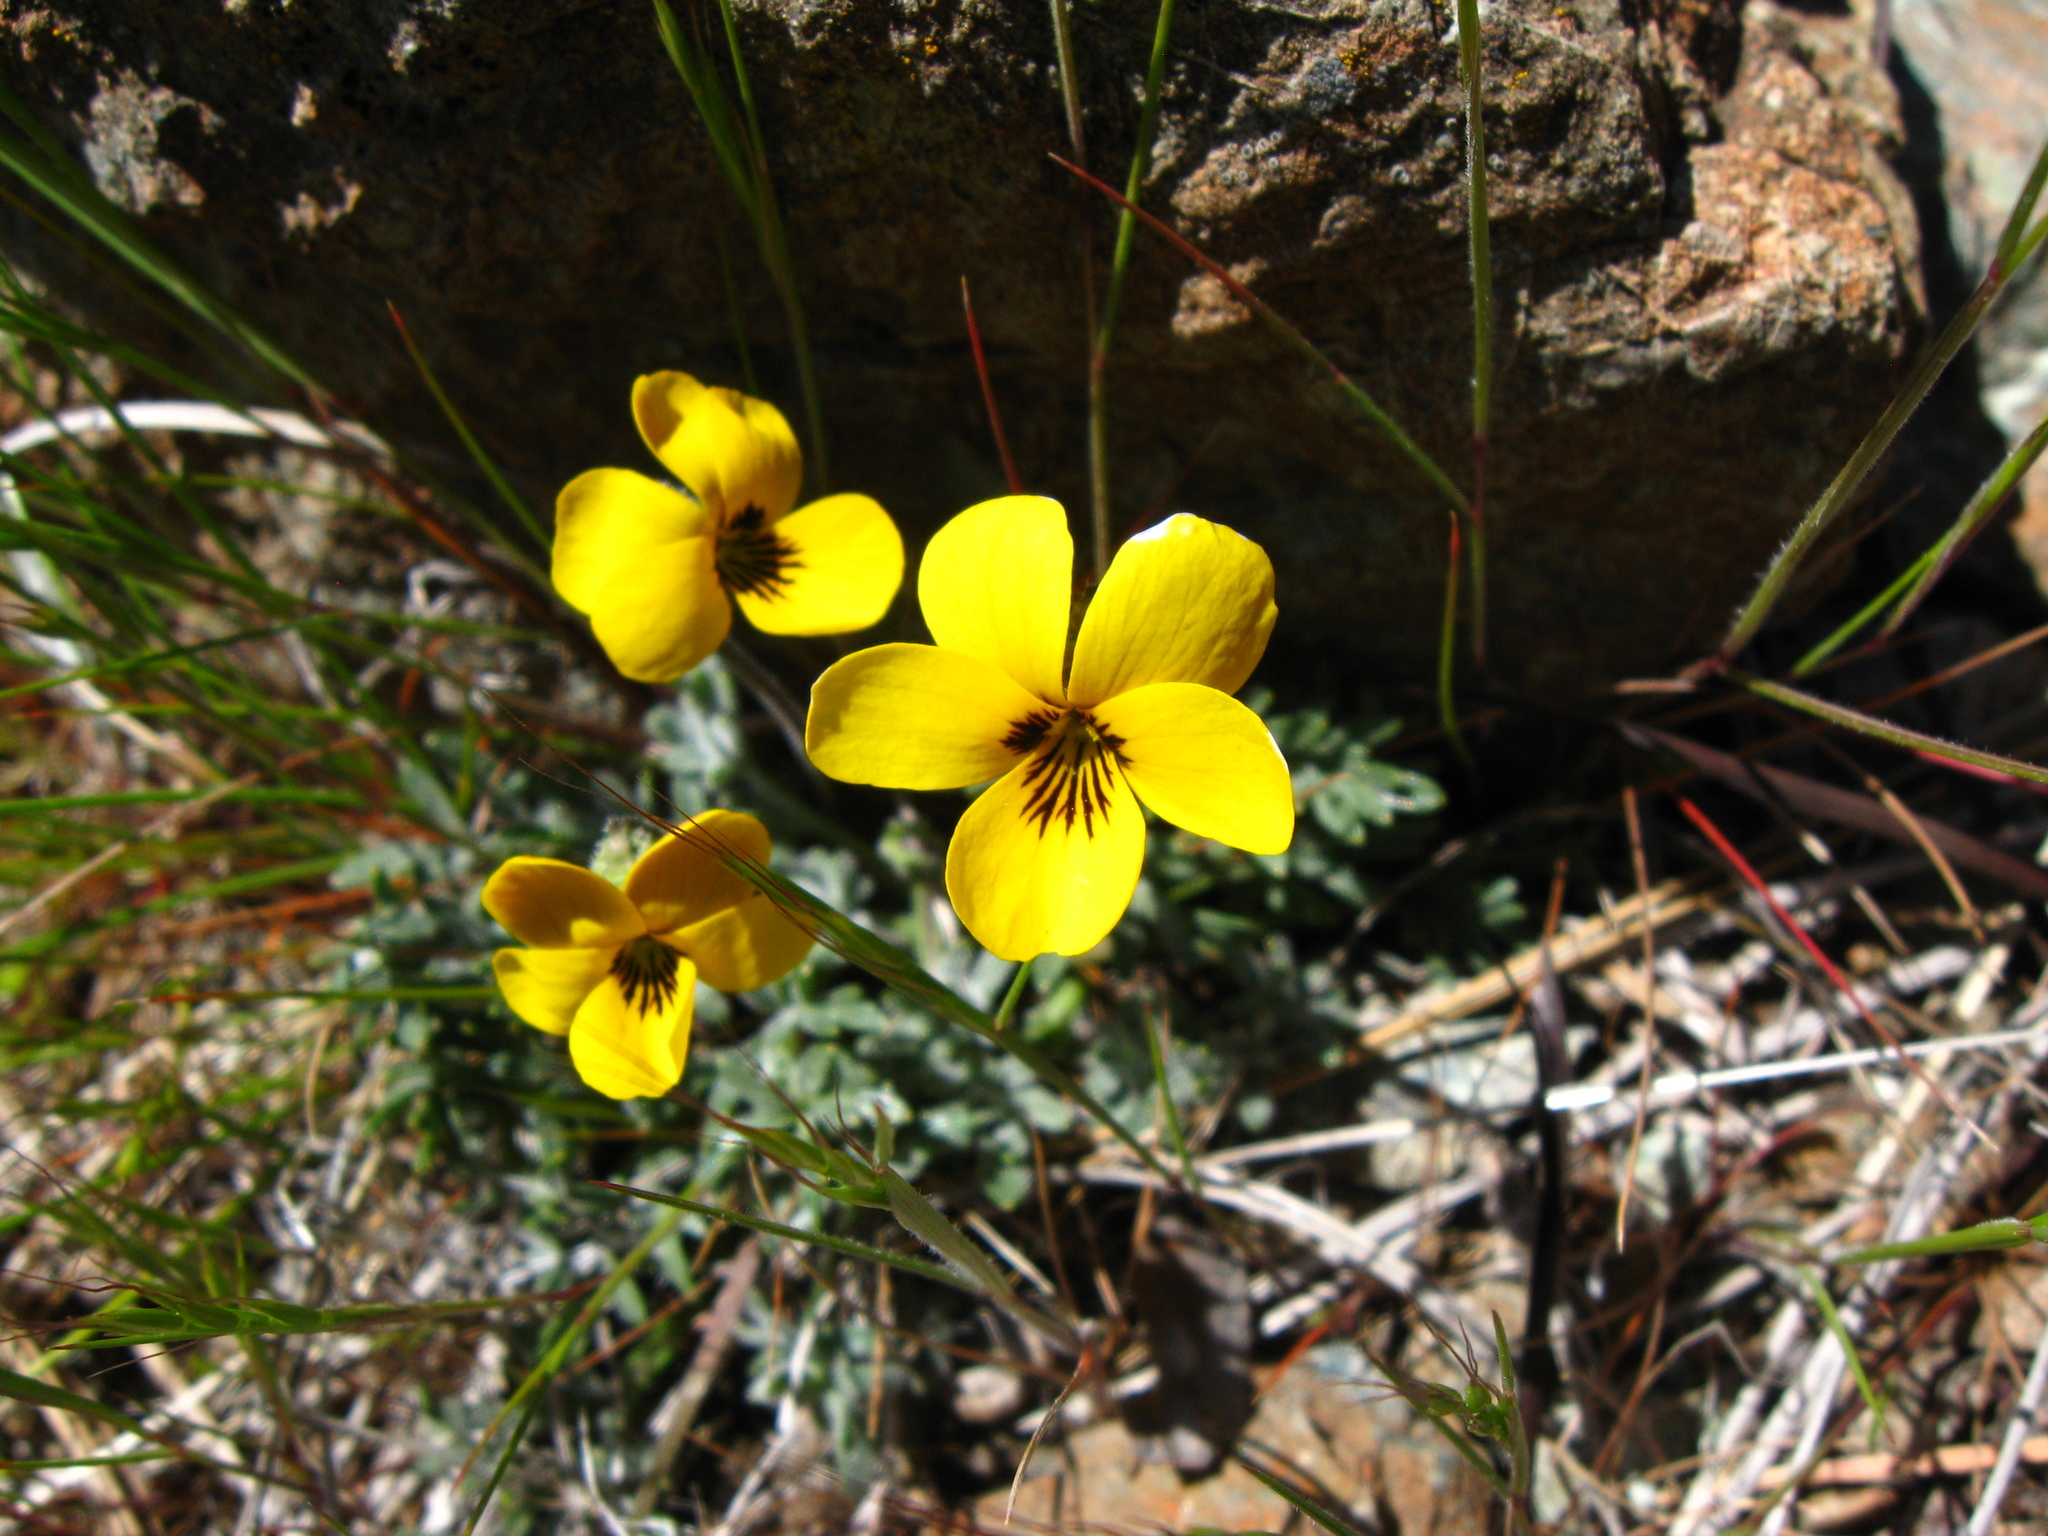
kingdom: Plantae
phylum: Tracheophyta
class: Magnoliopsida
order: Malpighiales
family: Violaceae
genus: Viola
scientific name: Viola douglasii
